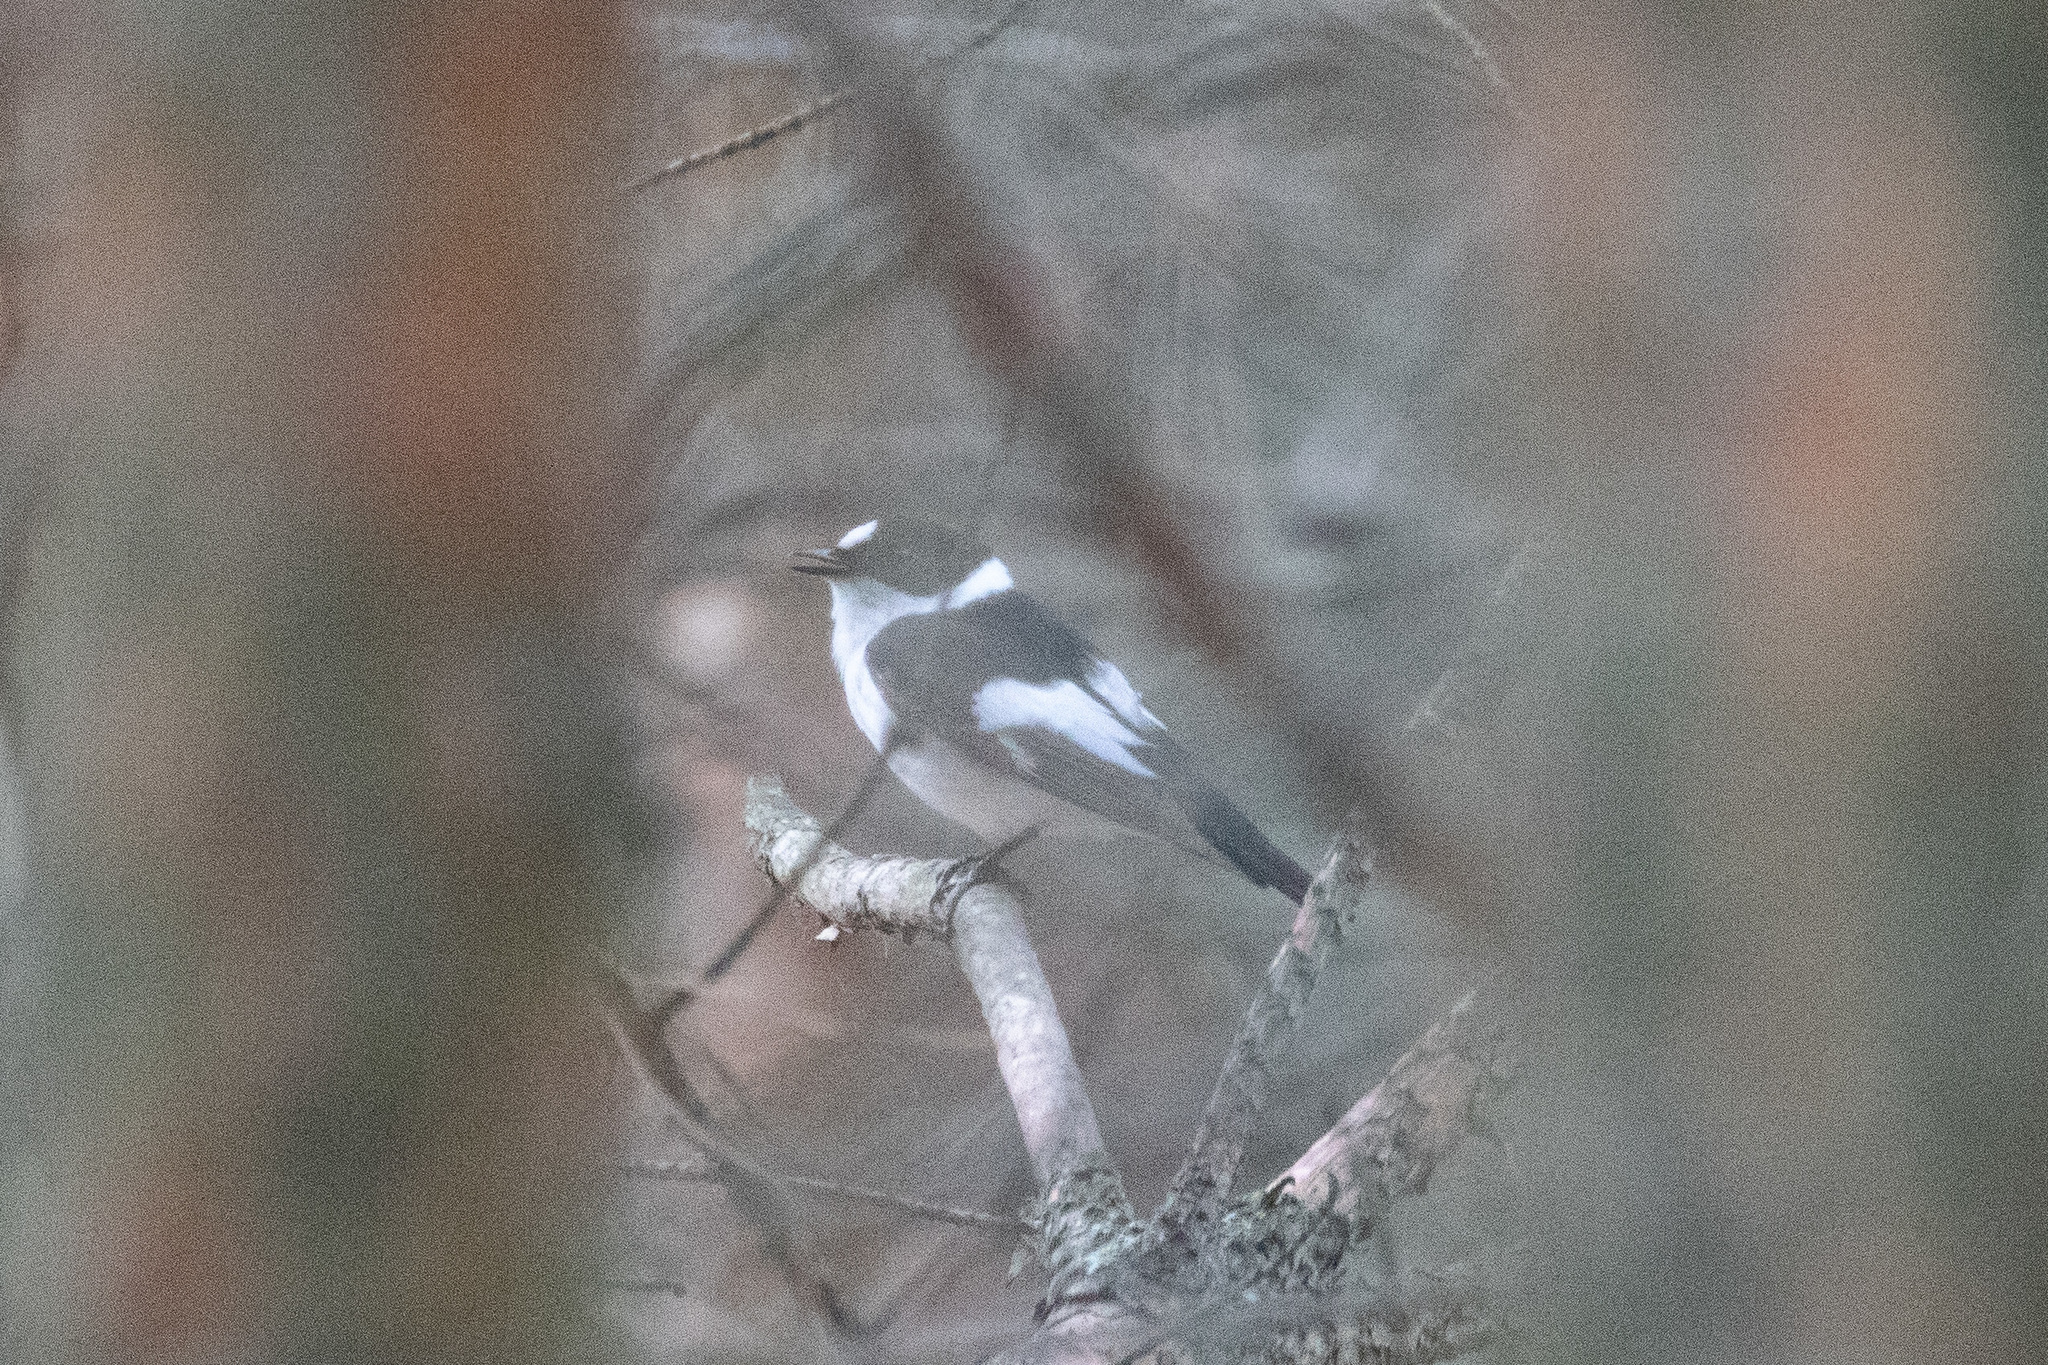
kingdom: Animalia
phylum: Chordata
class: Aves
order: Passeriformes
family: Muscicapidae
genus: Ficedula
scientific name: Ficedula albicollis
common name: Collared flycatcher
